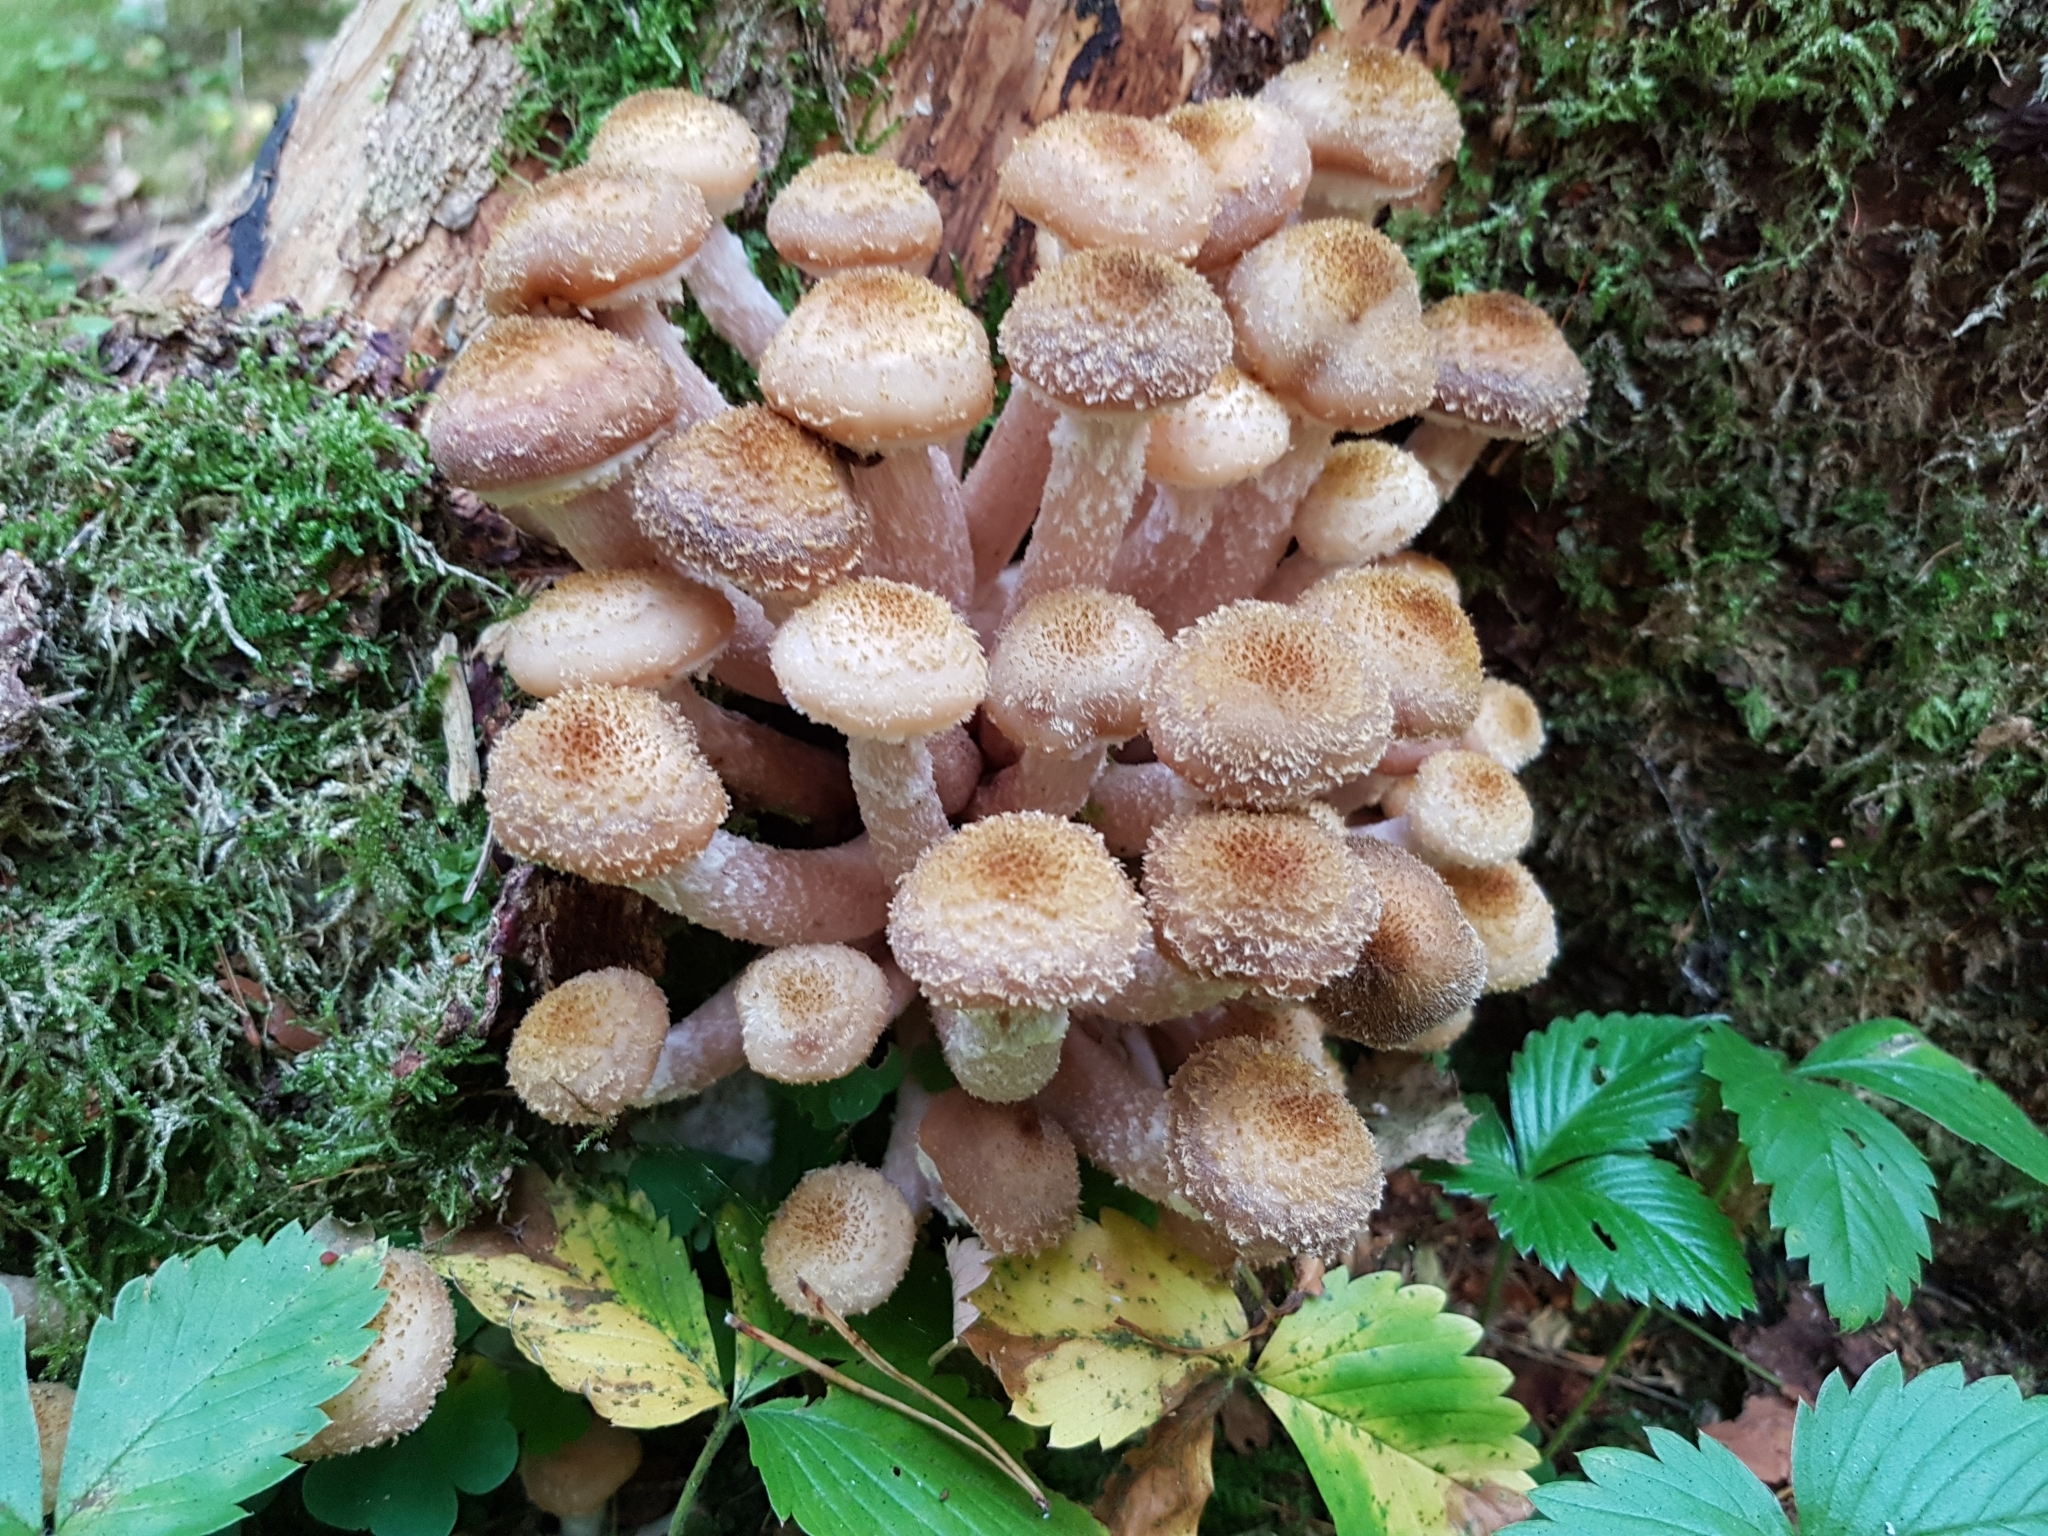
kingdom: Fungi
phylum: Basidiomycota
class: Agaricomycetes
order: Agaricales
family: Physalacriaceae
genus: Armillaria
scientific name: Armillaria mellea
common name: Honey fungus
